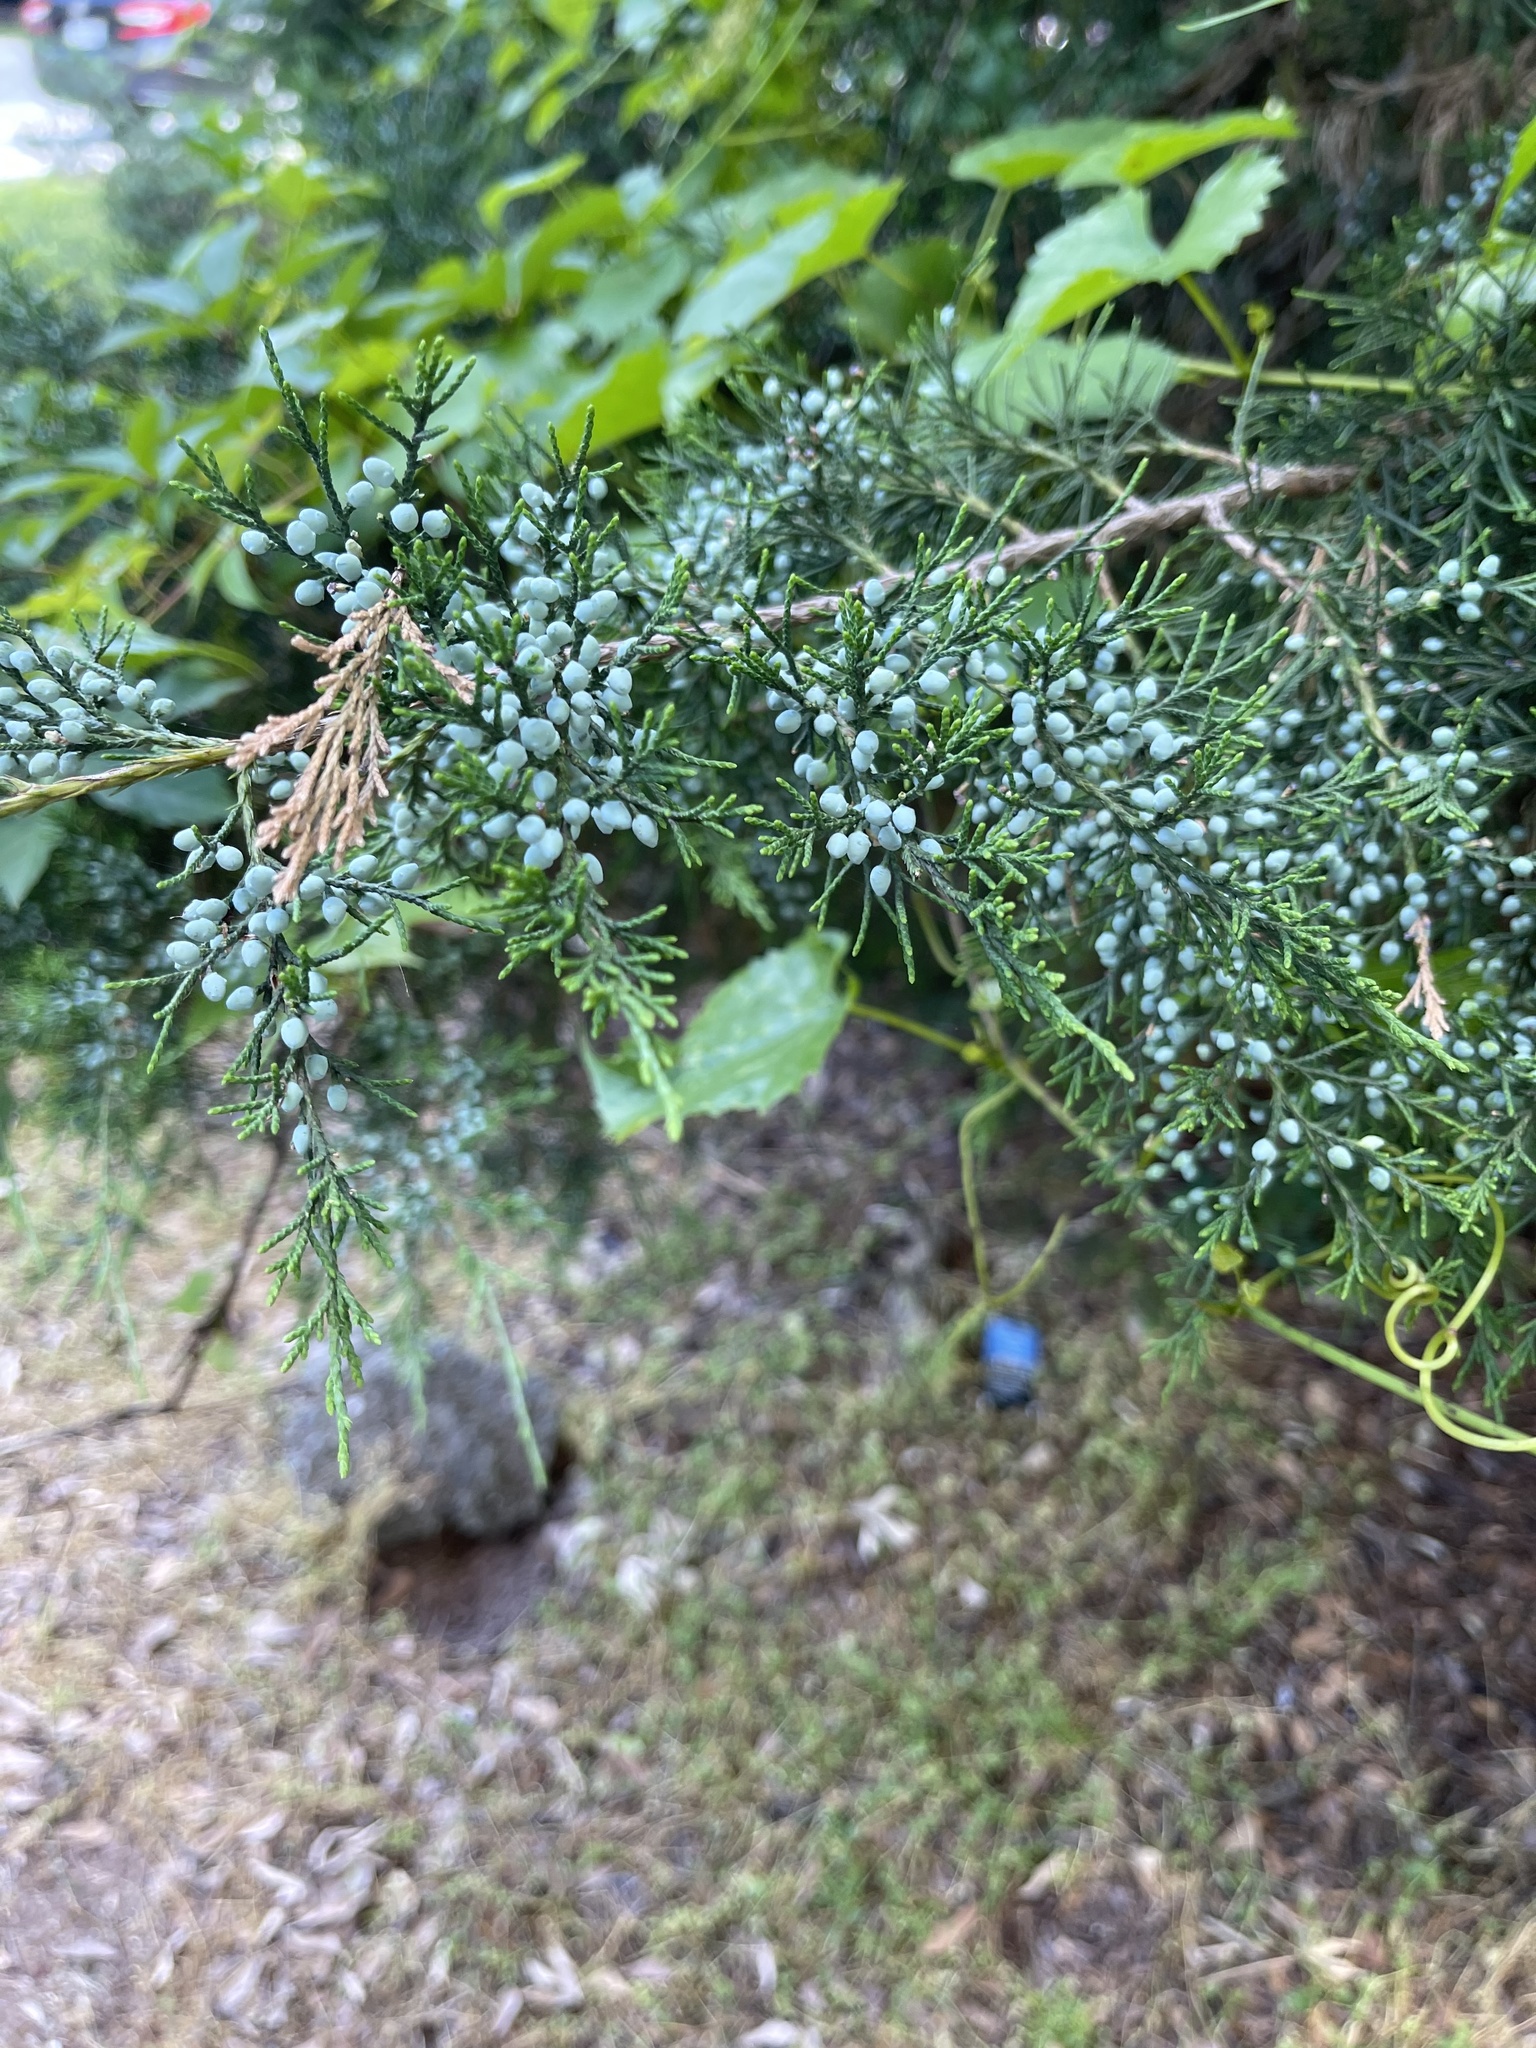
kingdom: Plantae
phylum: Tracheophyta
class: Pinopsida
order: Pinales
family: Cupressaceae
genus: Juniperus
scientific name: Juniperus virginiana
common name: Red juniper
